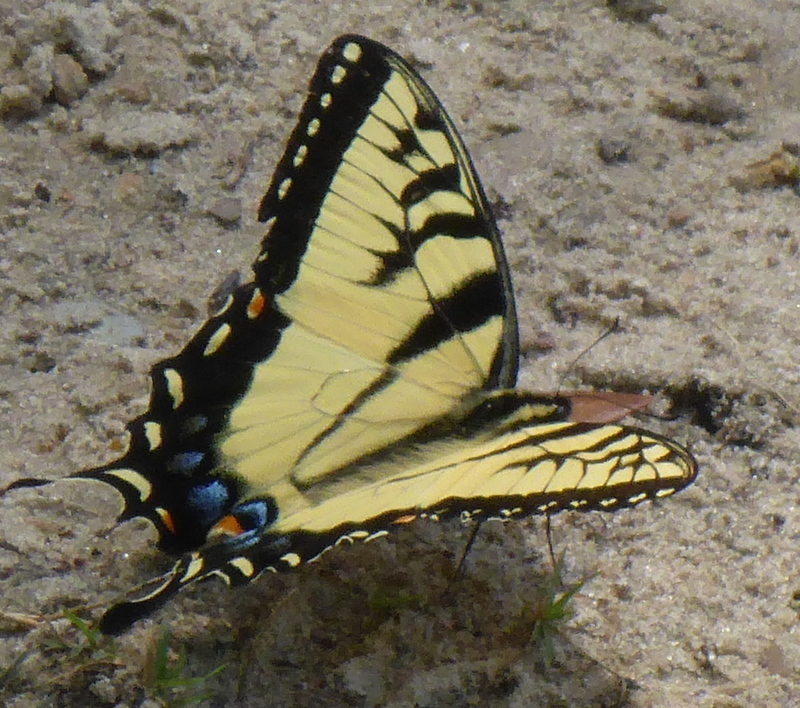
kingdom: Animalia
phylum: Arthropoda
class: Insecta
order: Lepidoptera
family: Papilionidae
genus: Papilio
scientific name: Papilio glaucus
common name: Tiger swallowtail
